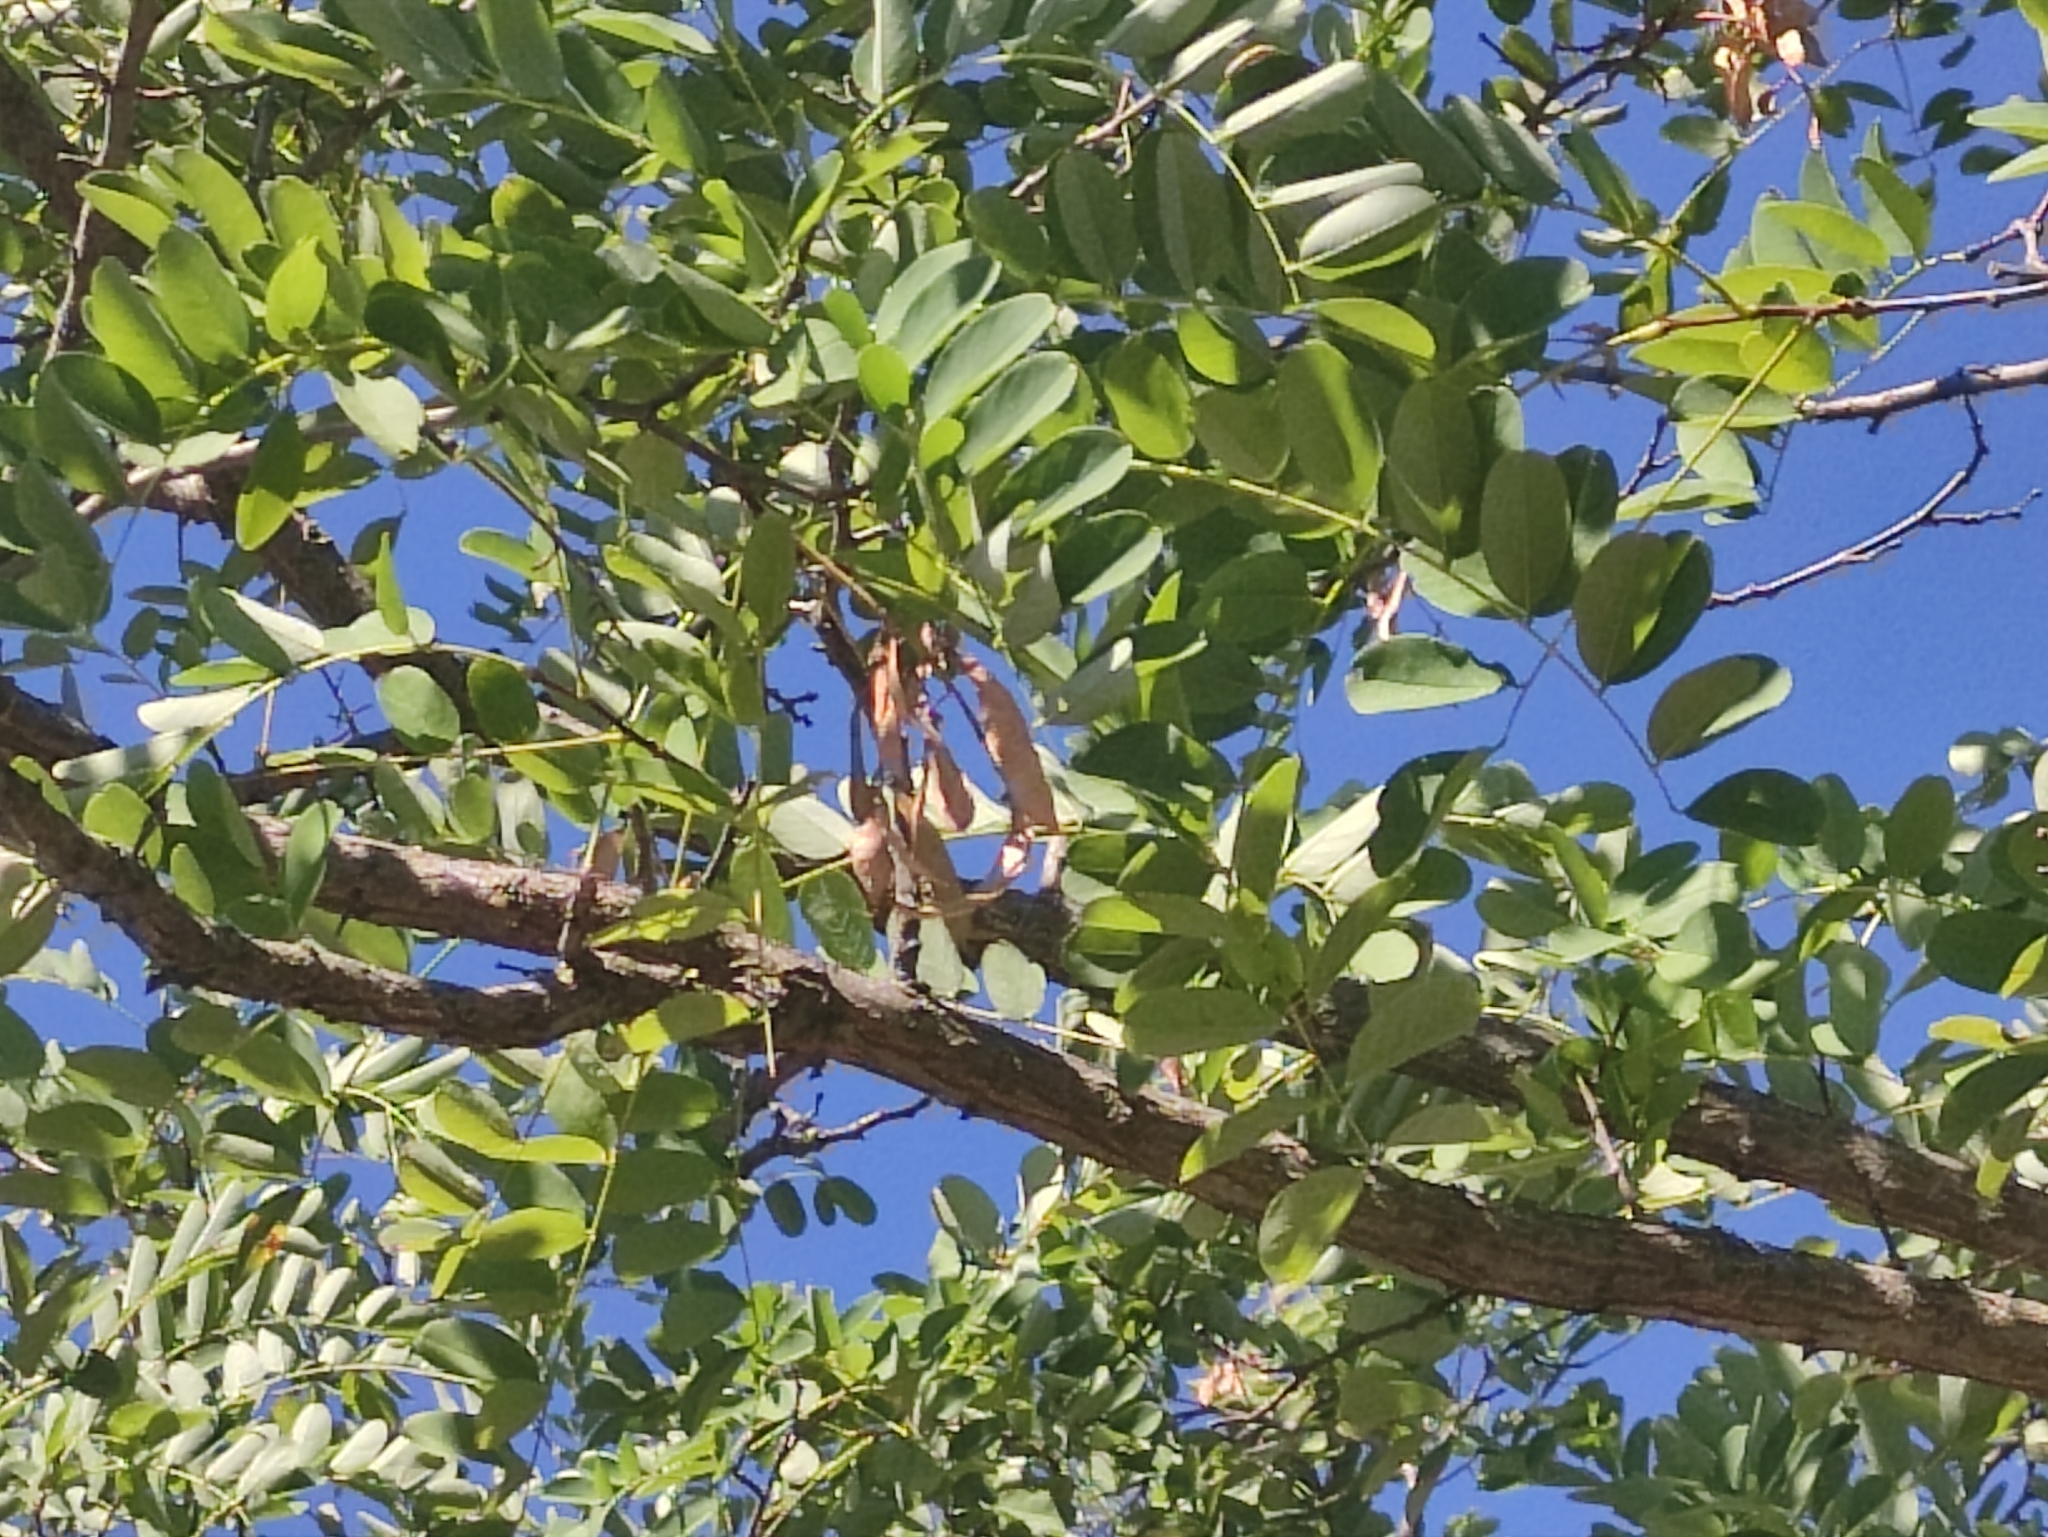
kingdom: Plantae
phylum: Tracheophyta
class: Magnoliopsida
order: Fabales
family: Fabaceae
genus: Robinia
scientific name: Robinia pseudoacacia
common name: Black locust
